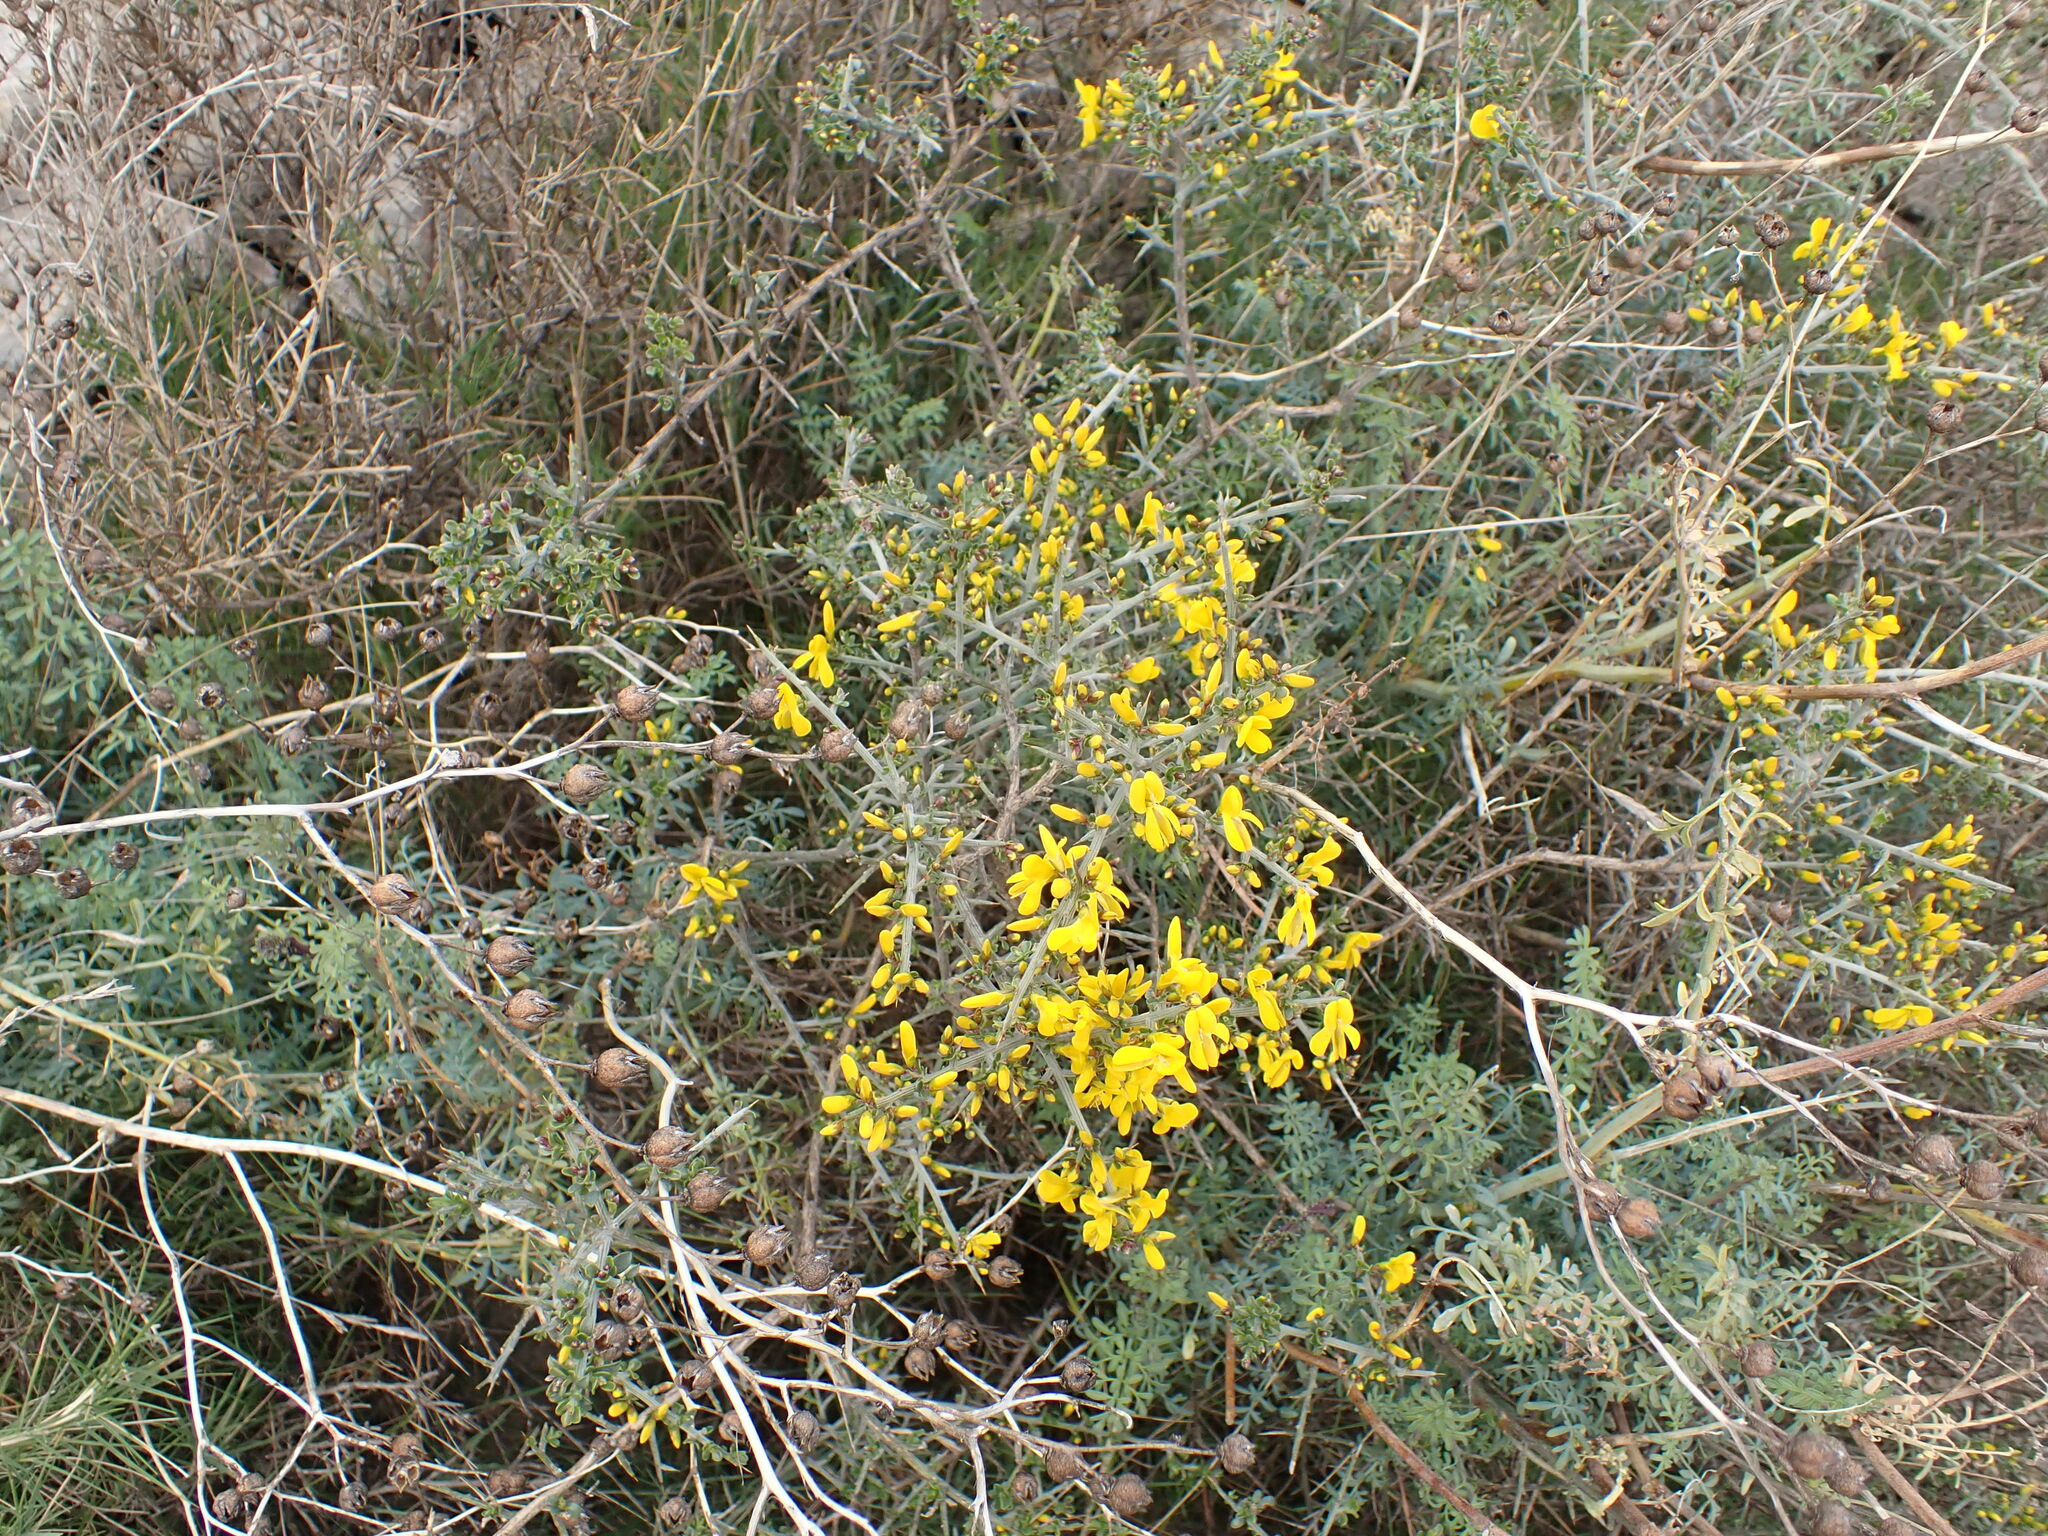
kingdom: Plantae
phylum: Tracheophyta
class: Magnoliopsida
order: Fabales
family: Fabaceae
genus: Genista
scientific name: Genista scorpius
